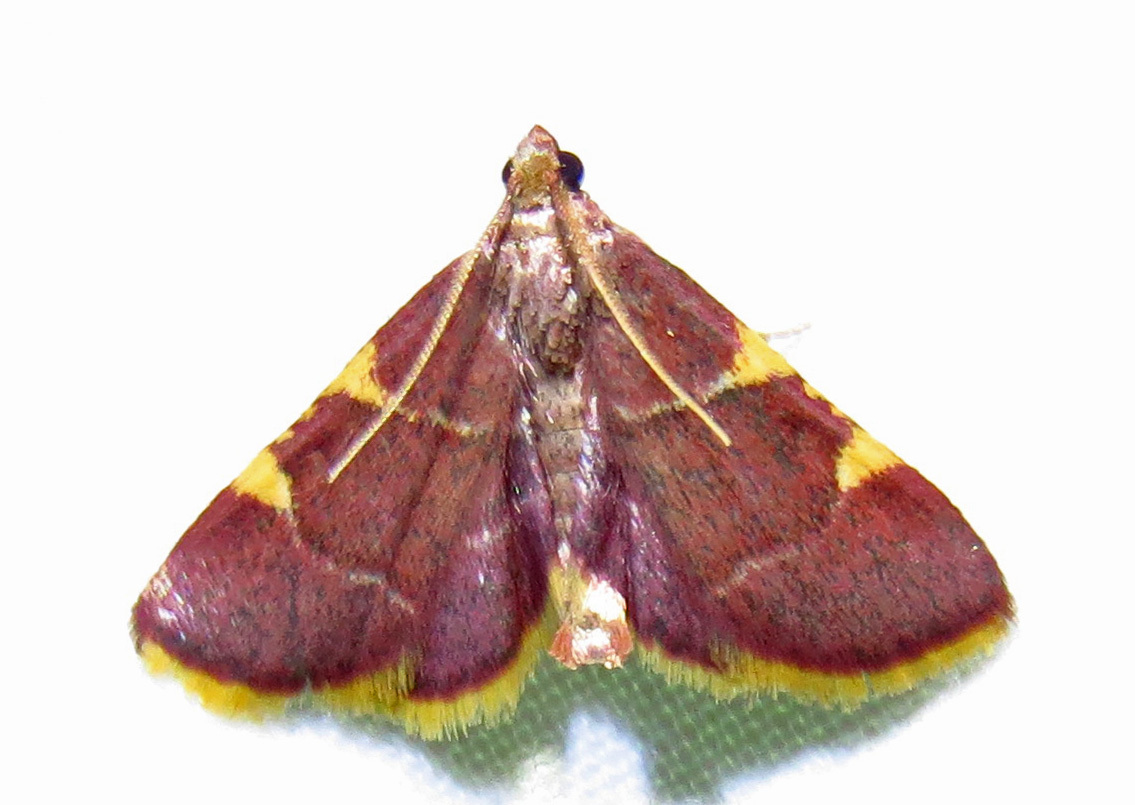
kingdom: Animalia
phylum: Arthropoda
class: Insecta
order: Lepidoptera
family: Pyralidae
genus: Hypsopygia
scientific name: Hypsopygia olinalis
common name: Yellow-fringed dolichomia moth
